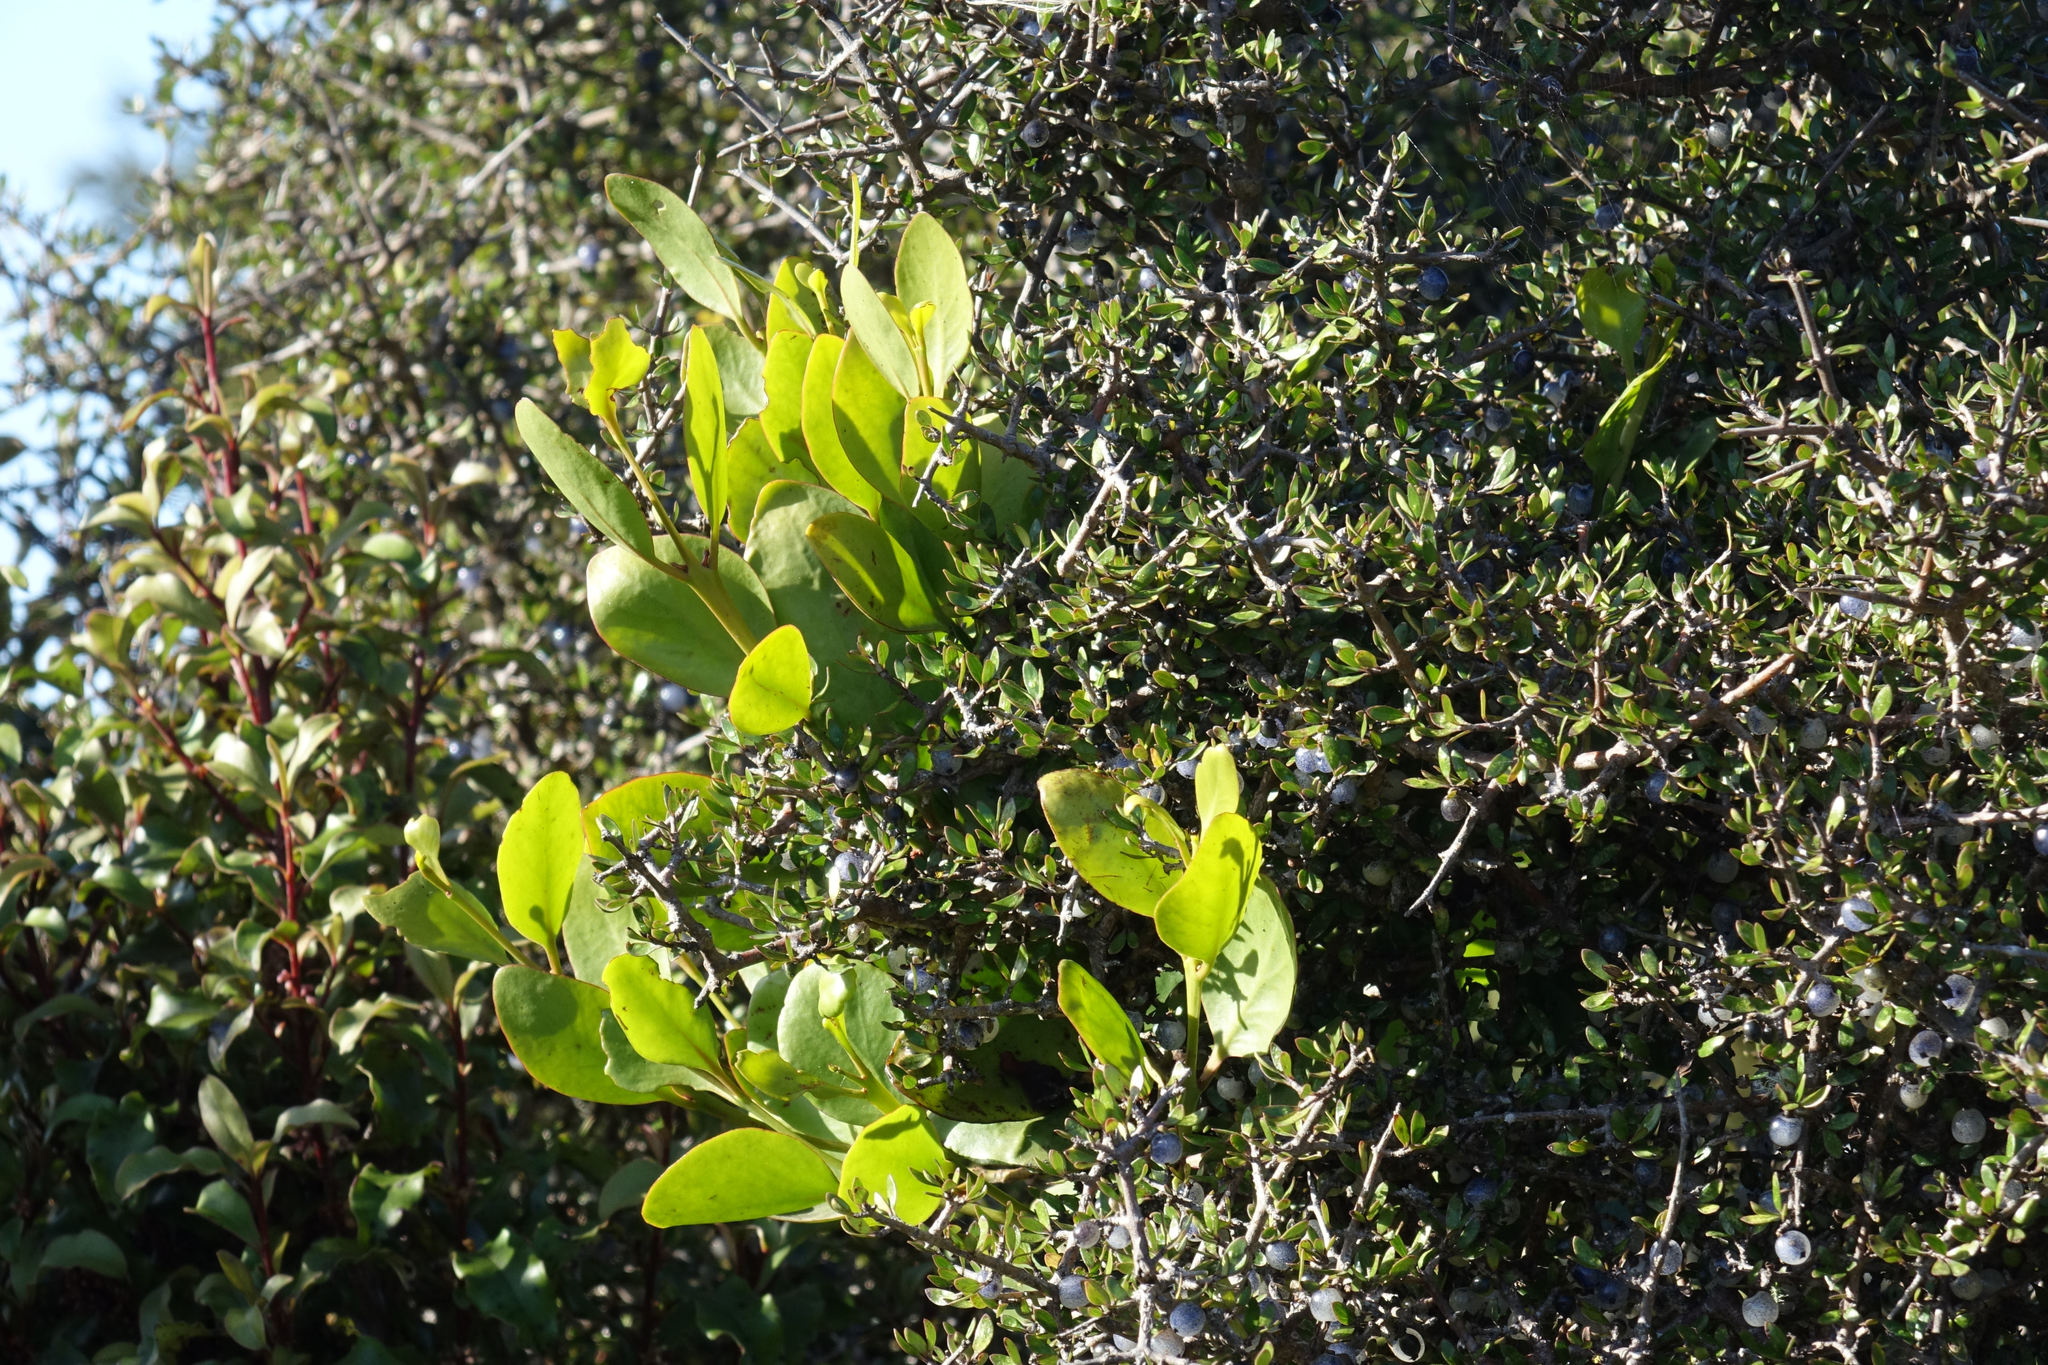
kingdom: Plantae
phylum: Tracheophyta
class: Magnoliopsida
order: Santalales
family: Loranthaceae
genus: Ileostylus
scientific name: Ileostylus micranthus
